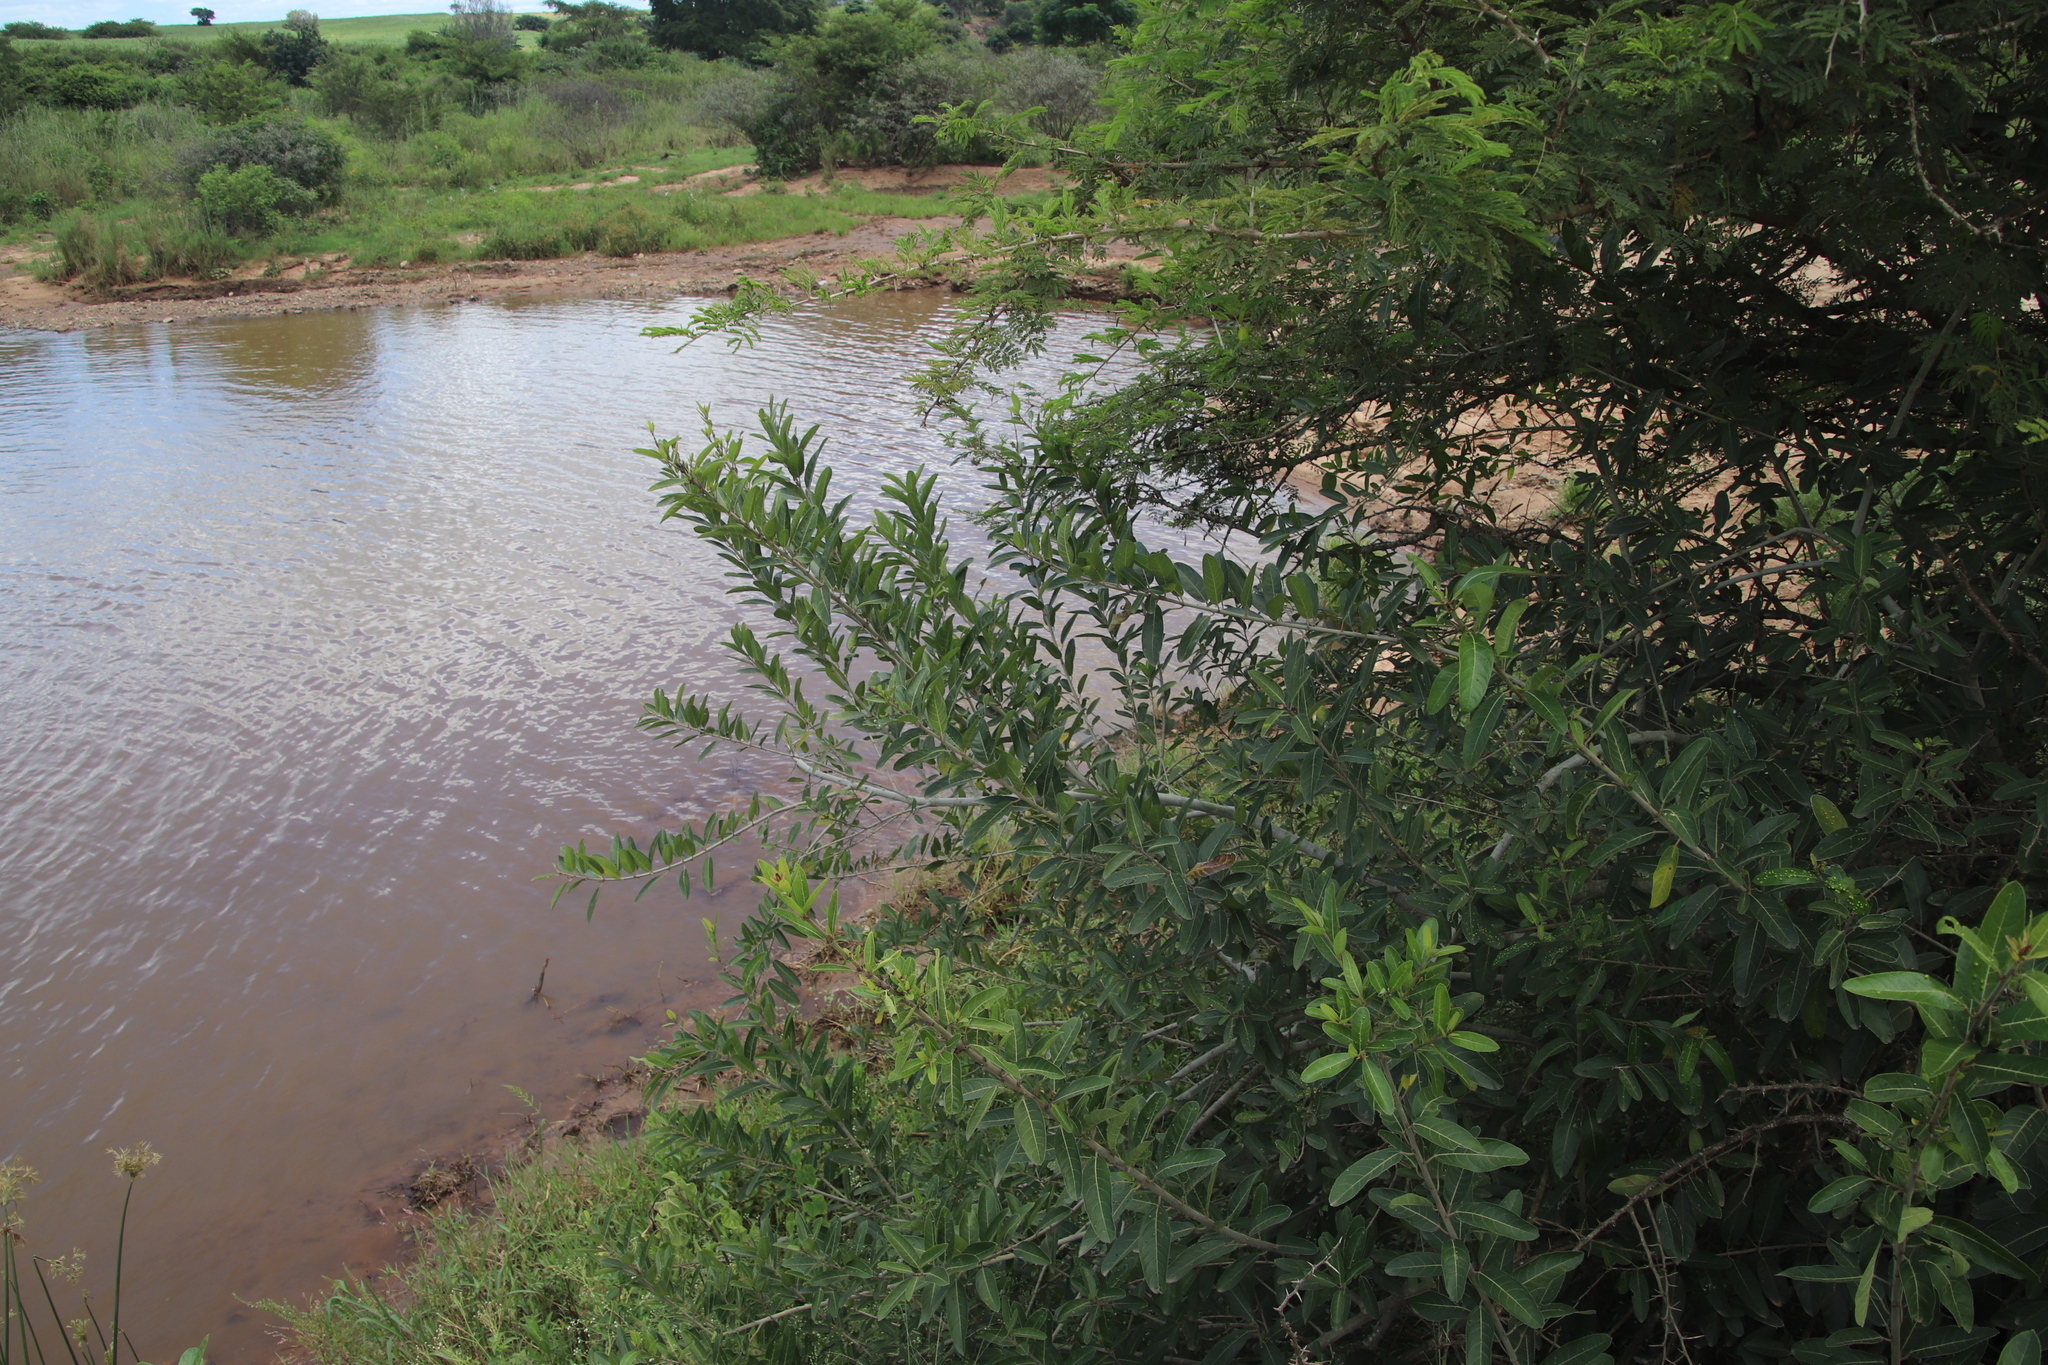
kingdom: Plantae
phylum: Tracheophyta
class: Magnoliopsida
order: Rosales
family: Moraceae
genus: Ficus
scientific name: Ficus capreifolia
